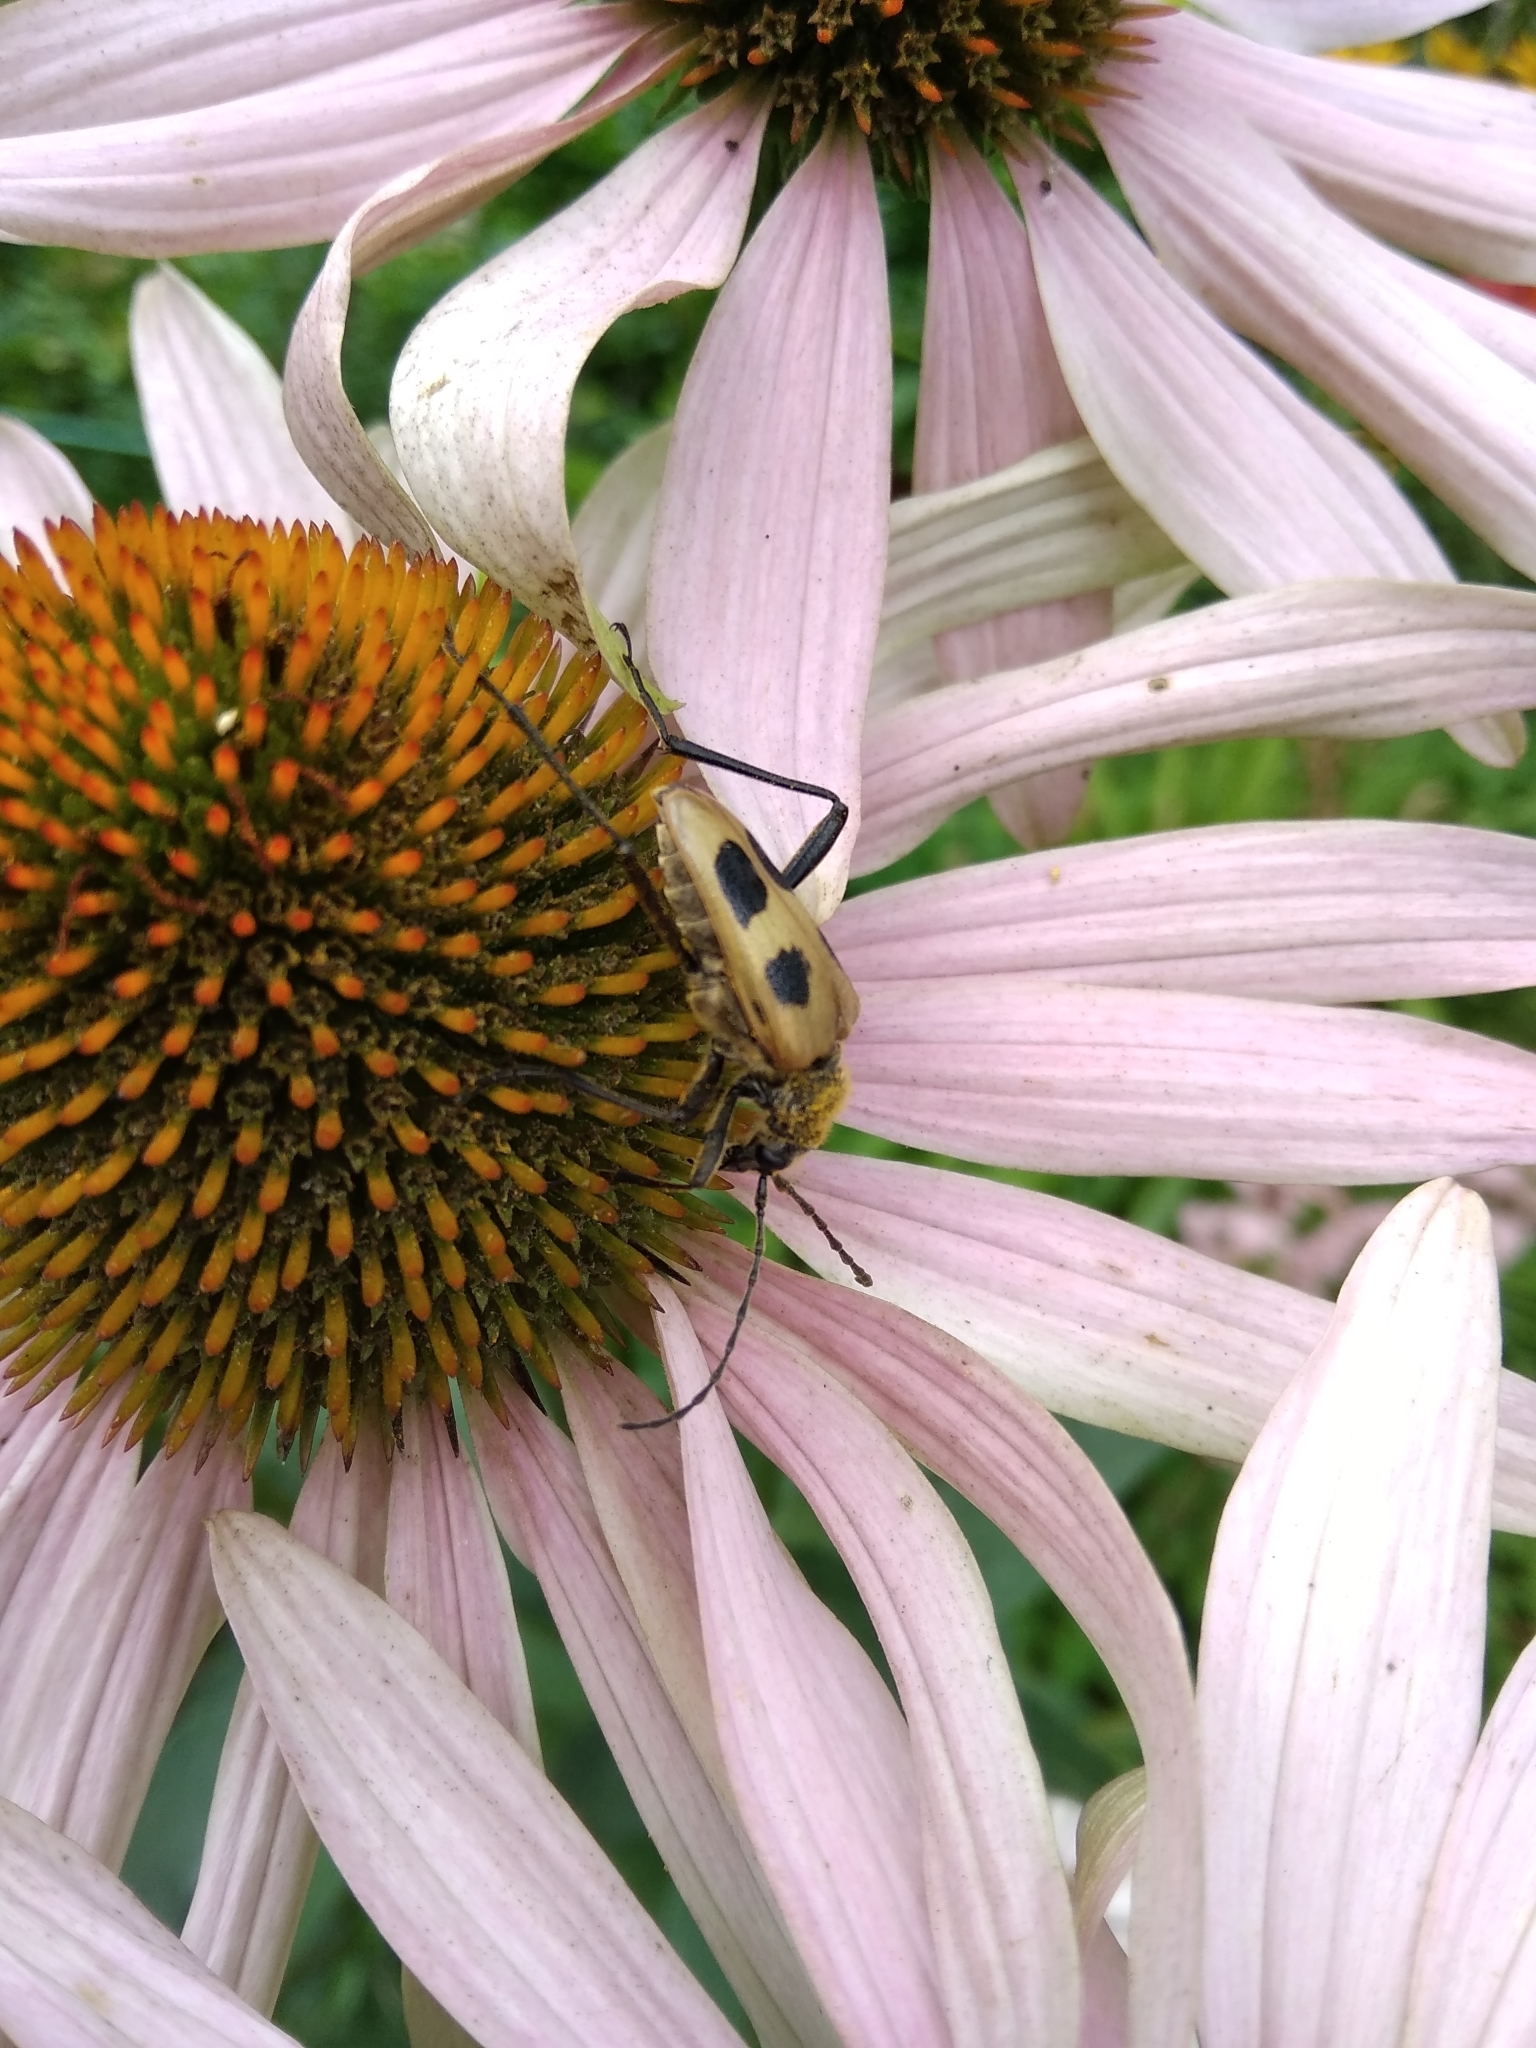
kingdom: Animalia
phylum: Arthropoda
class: Insecta
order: Coleoptera
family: Cerambycidae
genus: Pachyta
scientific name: Pachyta quadrimaculata
